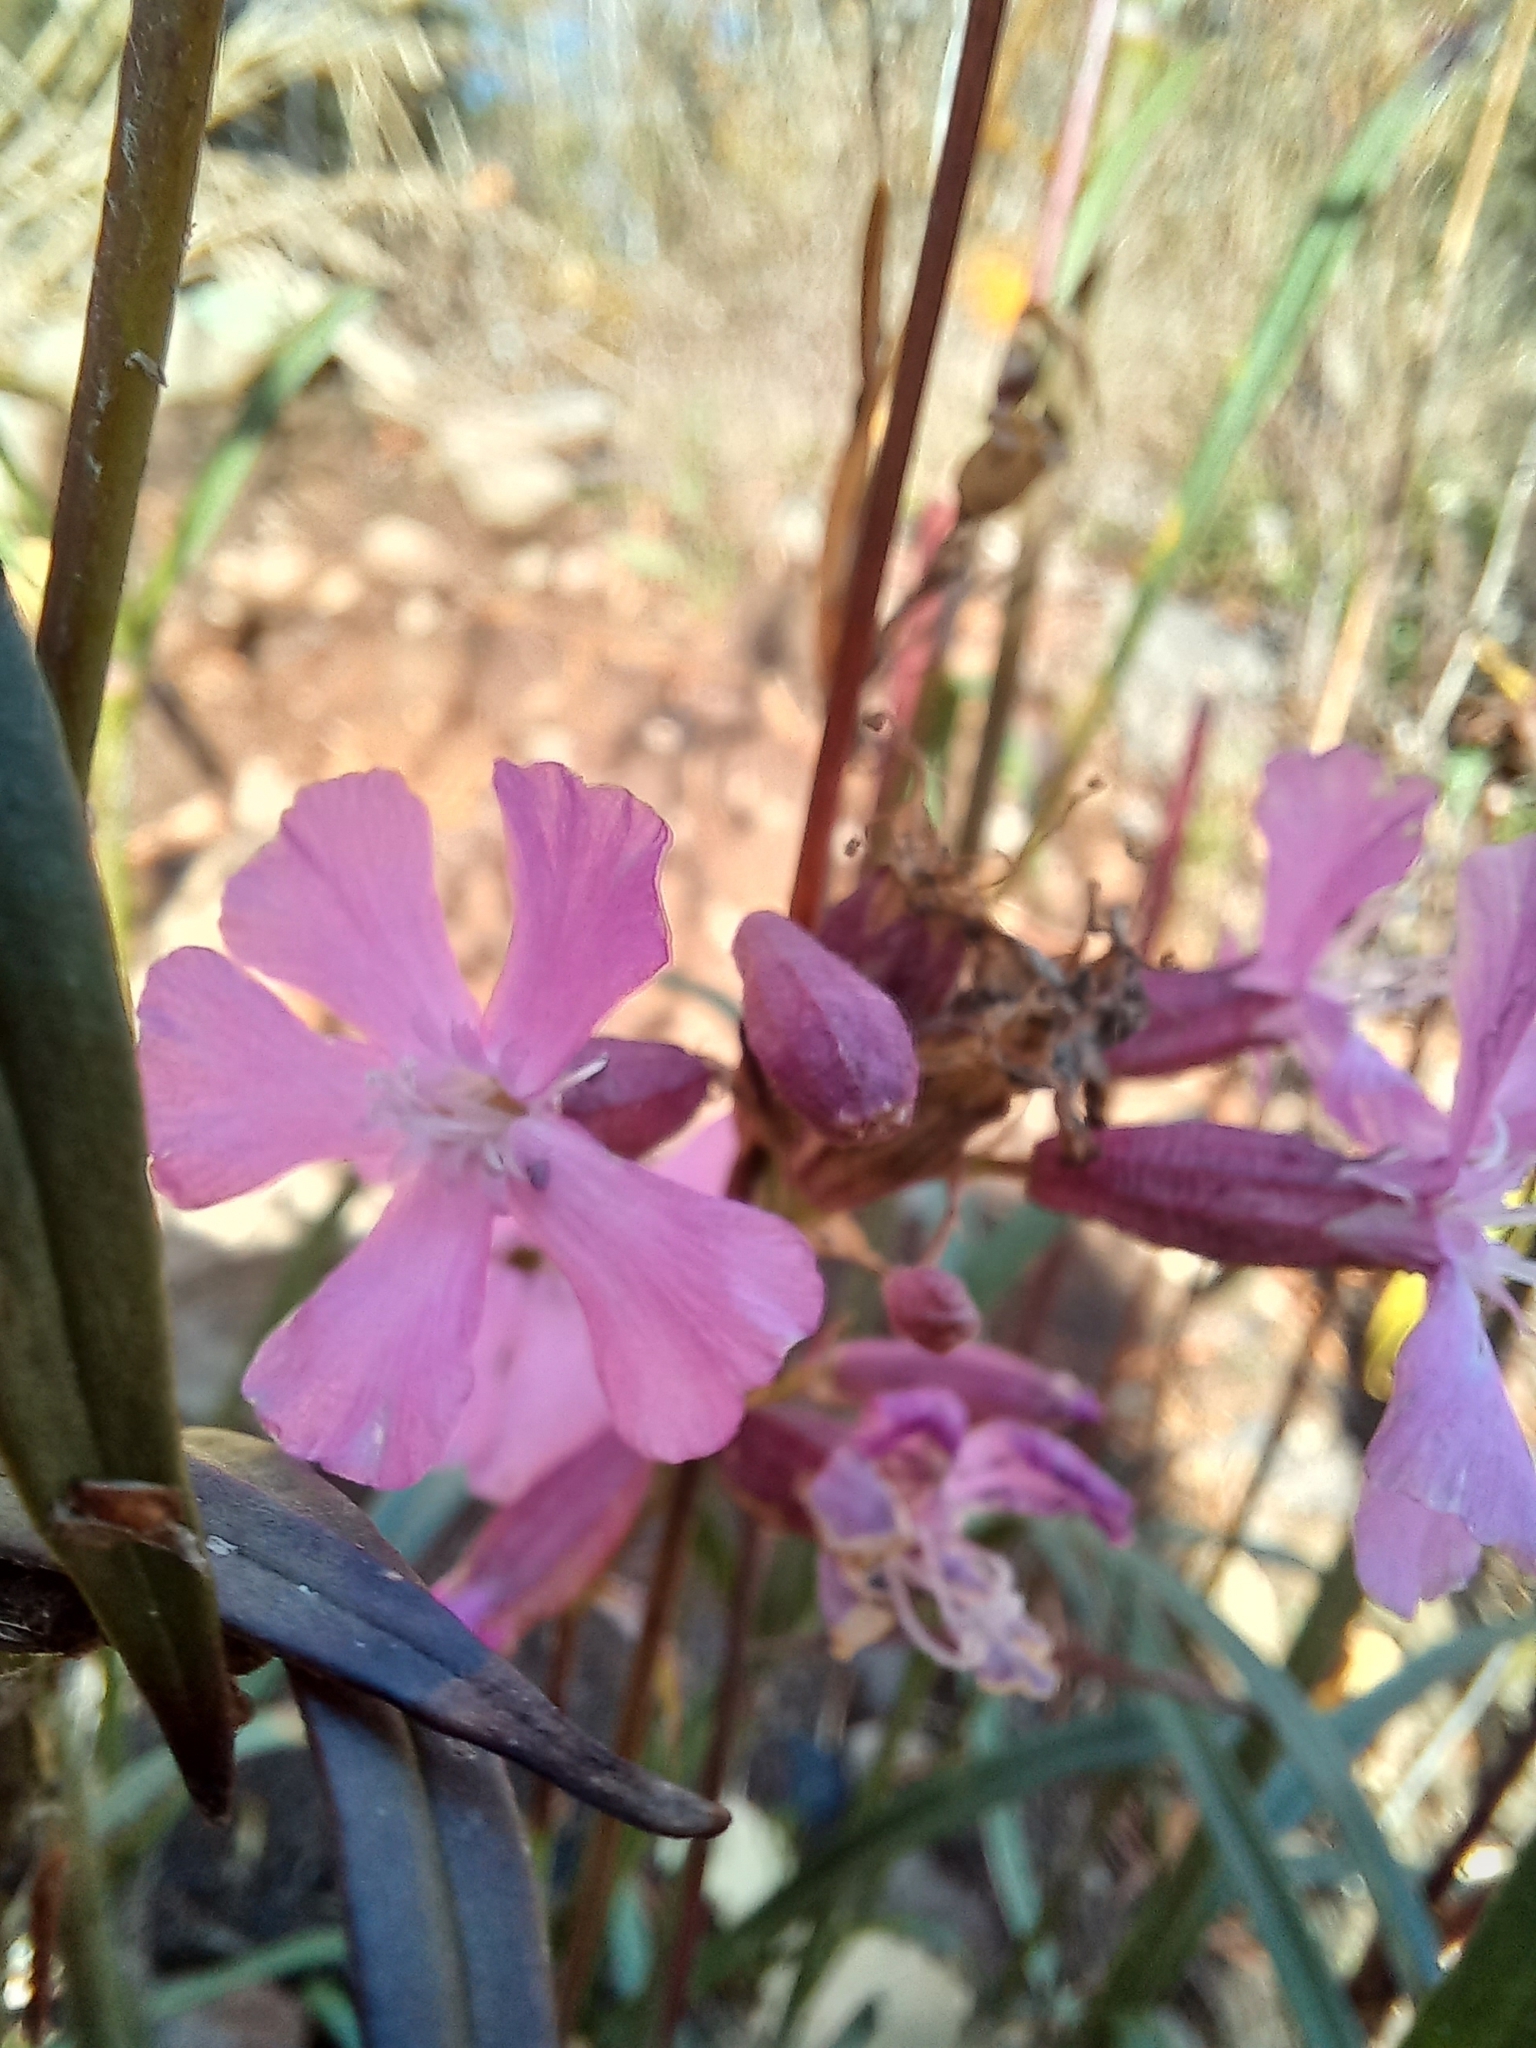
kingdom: Plantae
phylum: Tracheophyta
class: Magnoliopsida
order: Caryophyllales
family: Caryophyllaceae
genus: Viscaria
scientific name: Viscaria vulgaris
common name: Clammy campion
